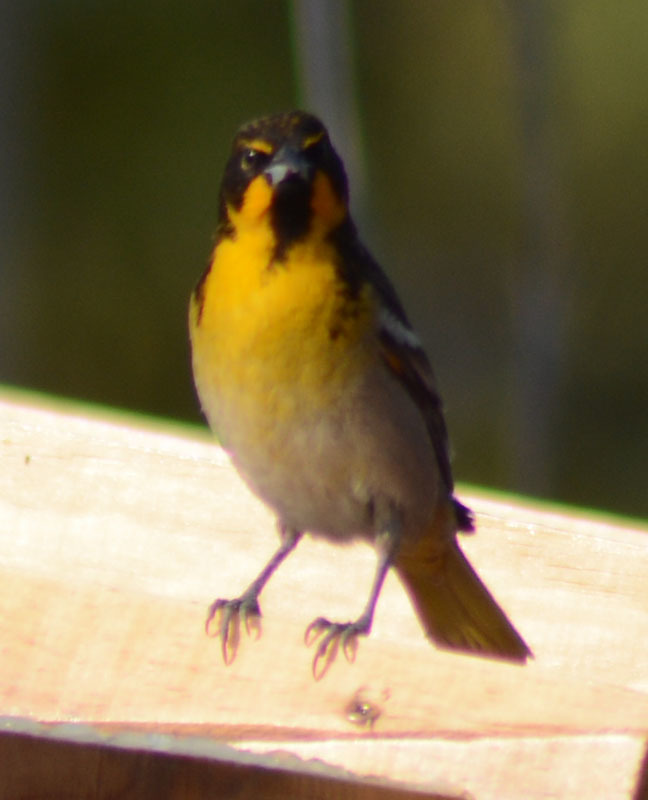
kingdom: Animalia
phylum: Chordata
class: Aves
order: Passeriformes
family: Icteridae
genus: Icterus
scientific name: Icterus abeillei
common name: Black-backed oriole
